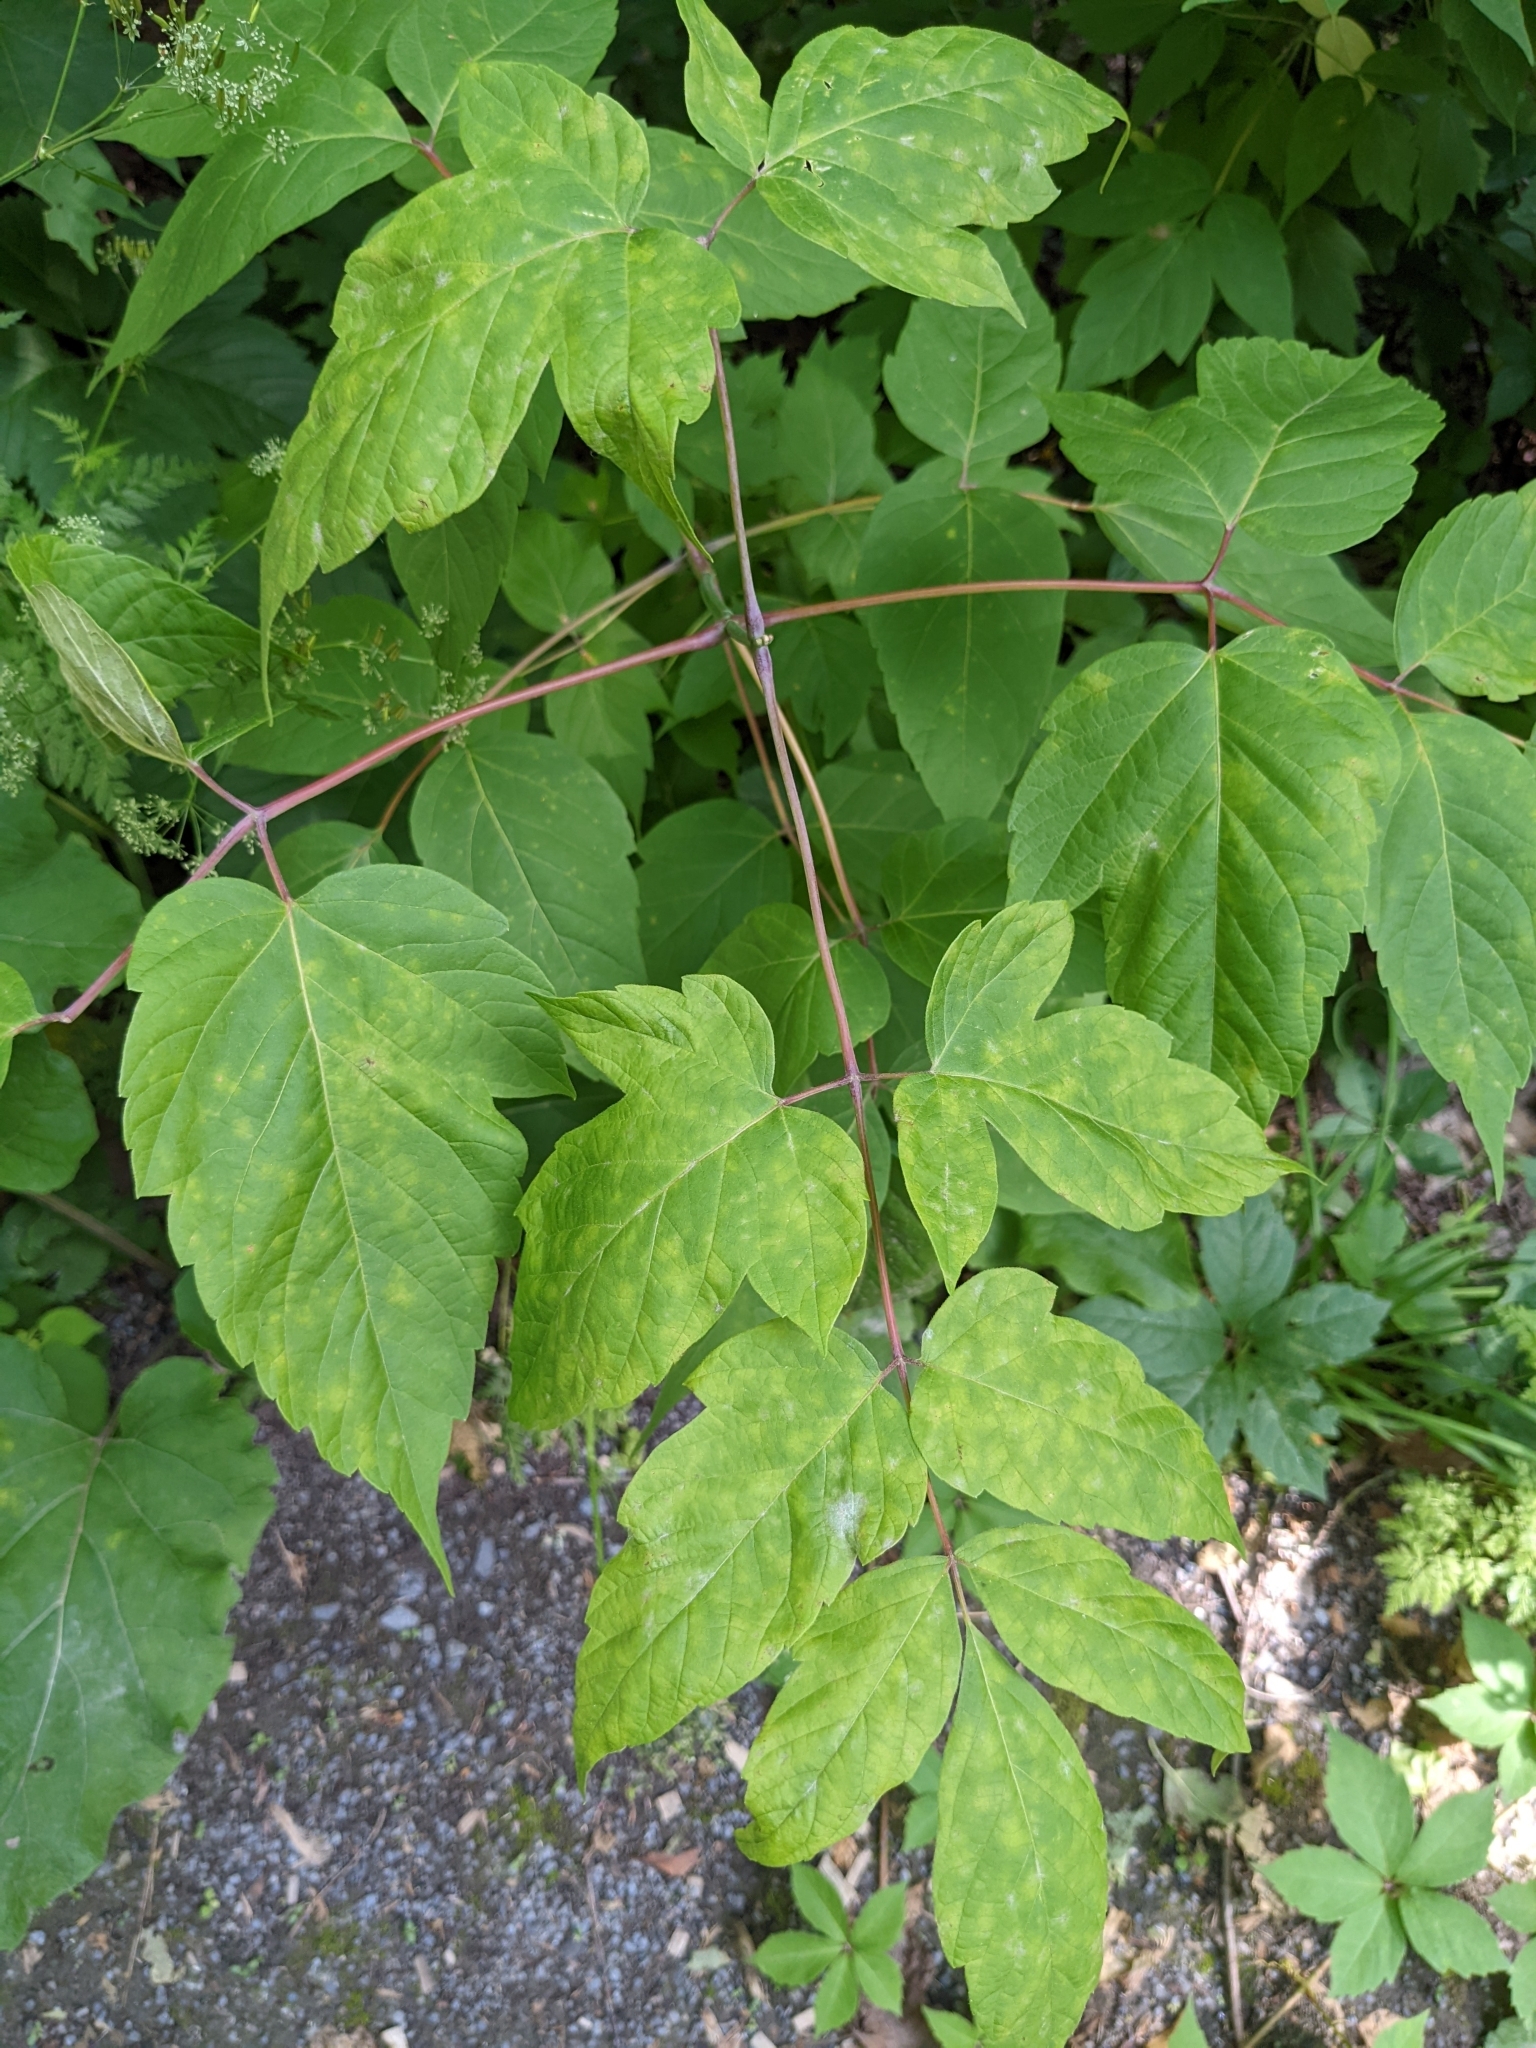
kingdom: Plantae
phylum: Tracheophyta
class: Magnoliopsida
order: Sapindales
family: Sapindaceae
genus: Acer
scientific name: Acer negundo
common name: Ashleaf maple
